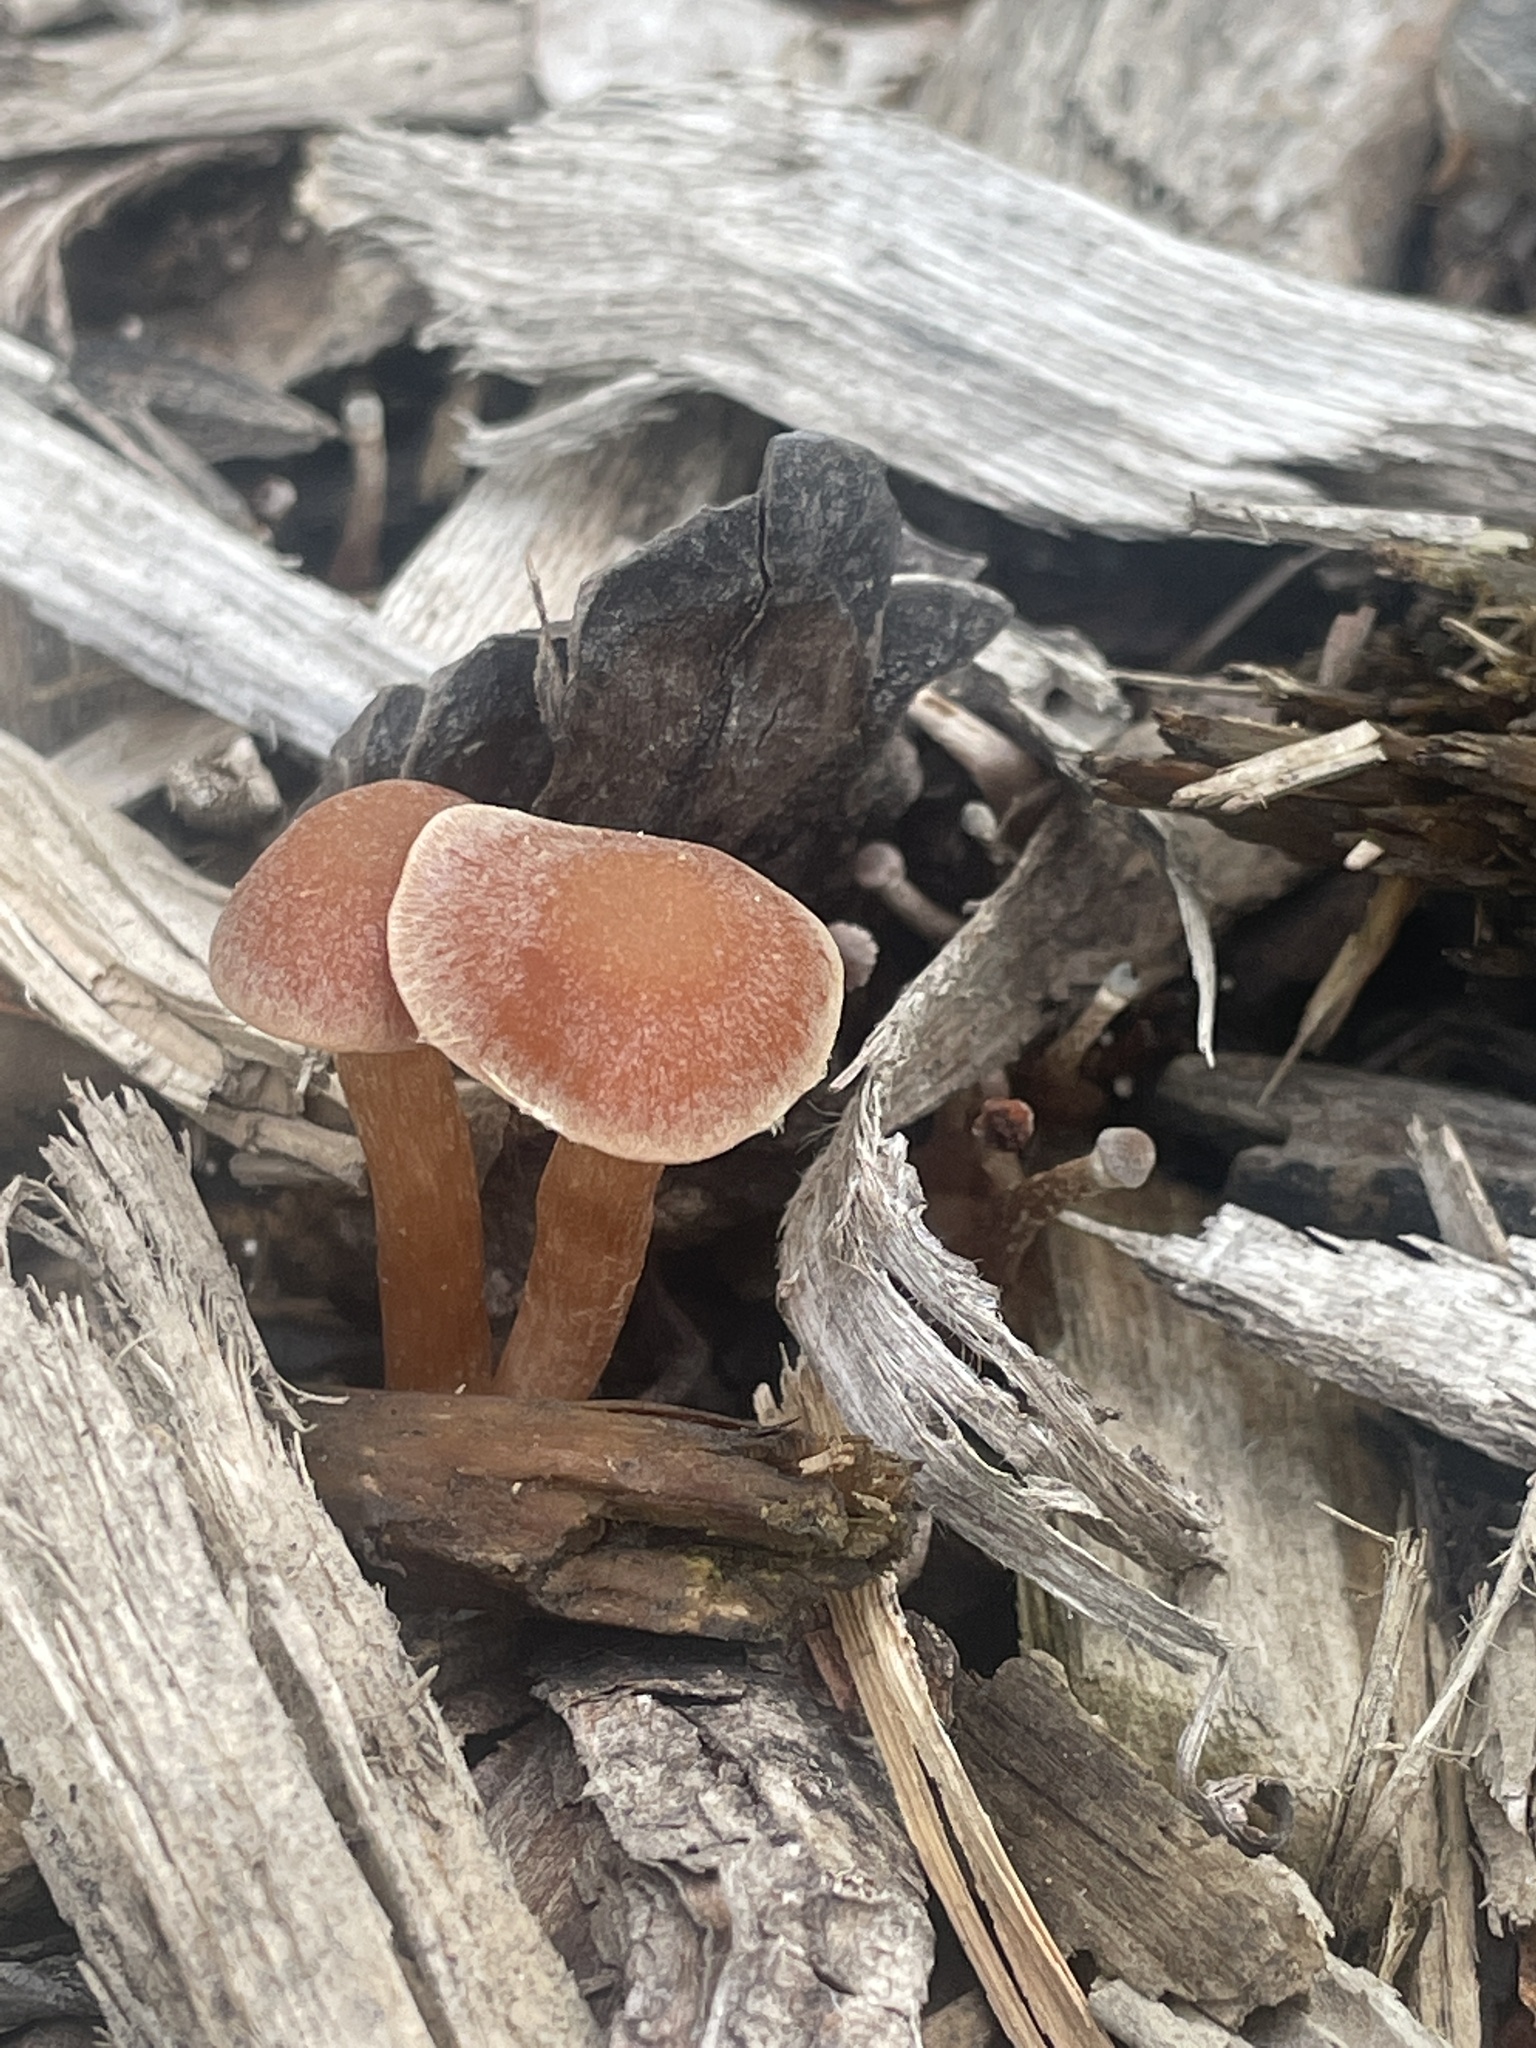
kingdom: Fungi
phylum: Basidiomycota
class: Agaricomycetes
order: Agaricales
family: Tubariaceae
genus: Tubaria
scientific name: Tubaria furfuracea
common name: Scurfy twiglet
